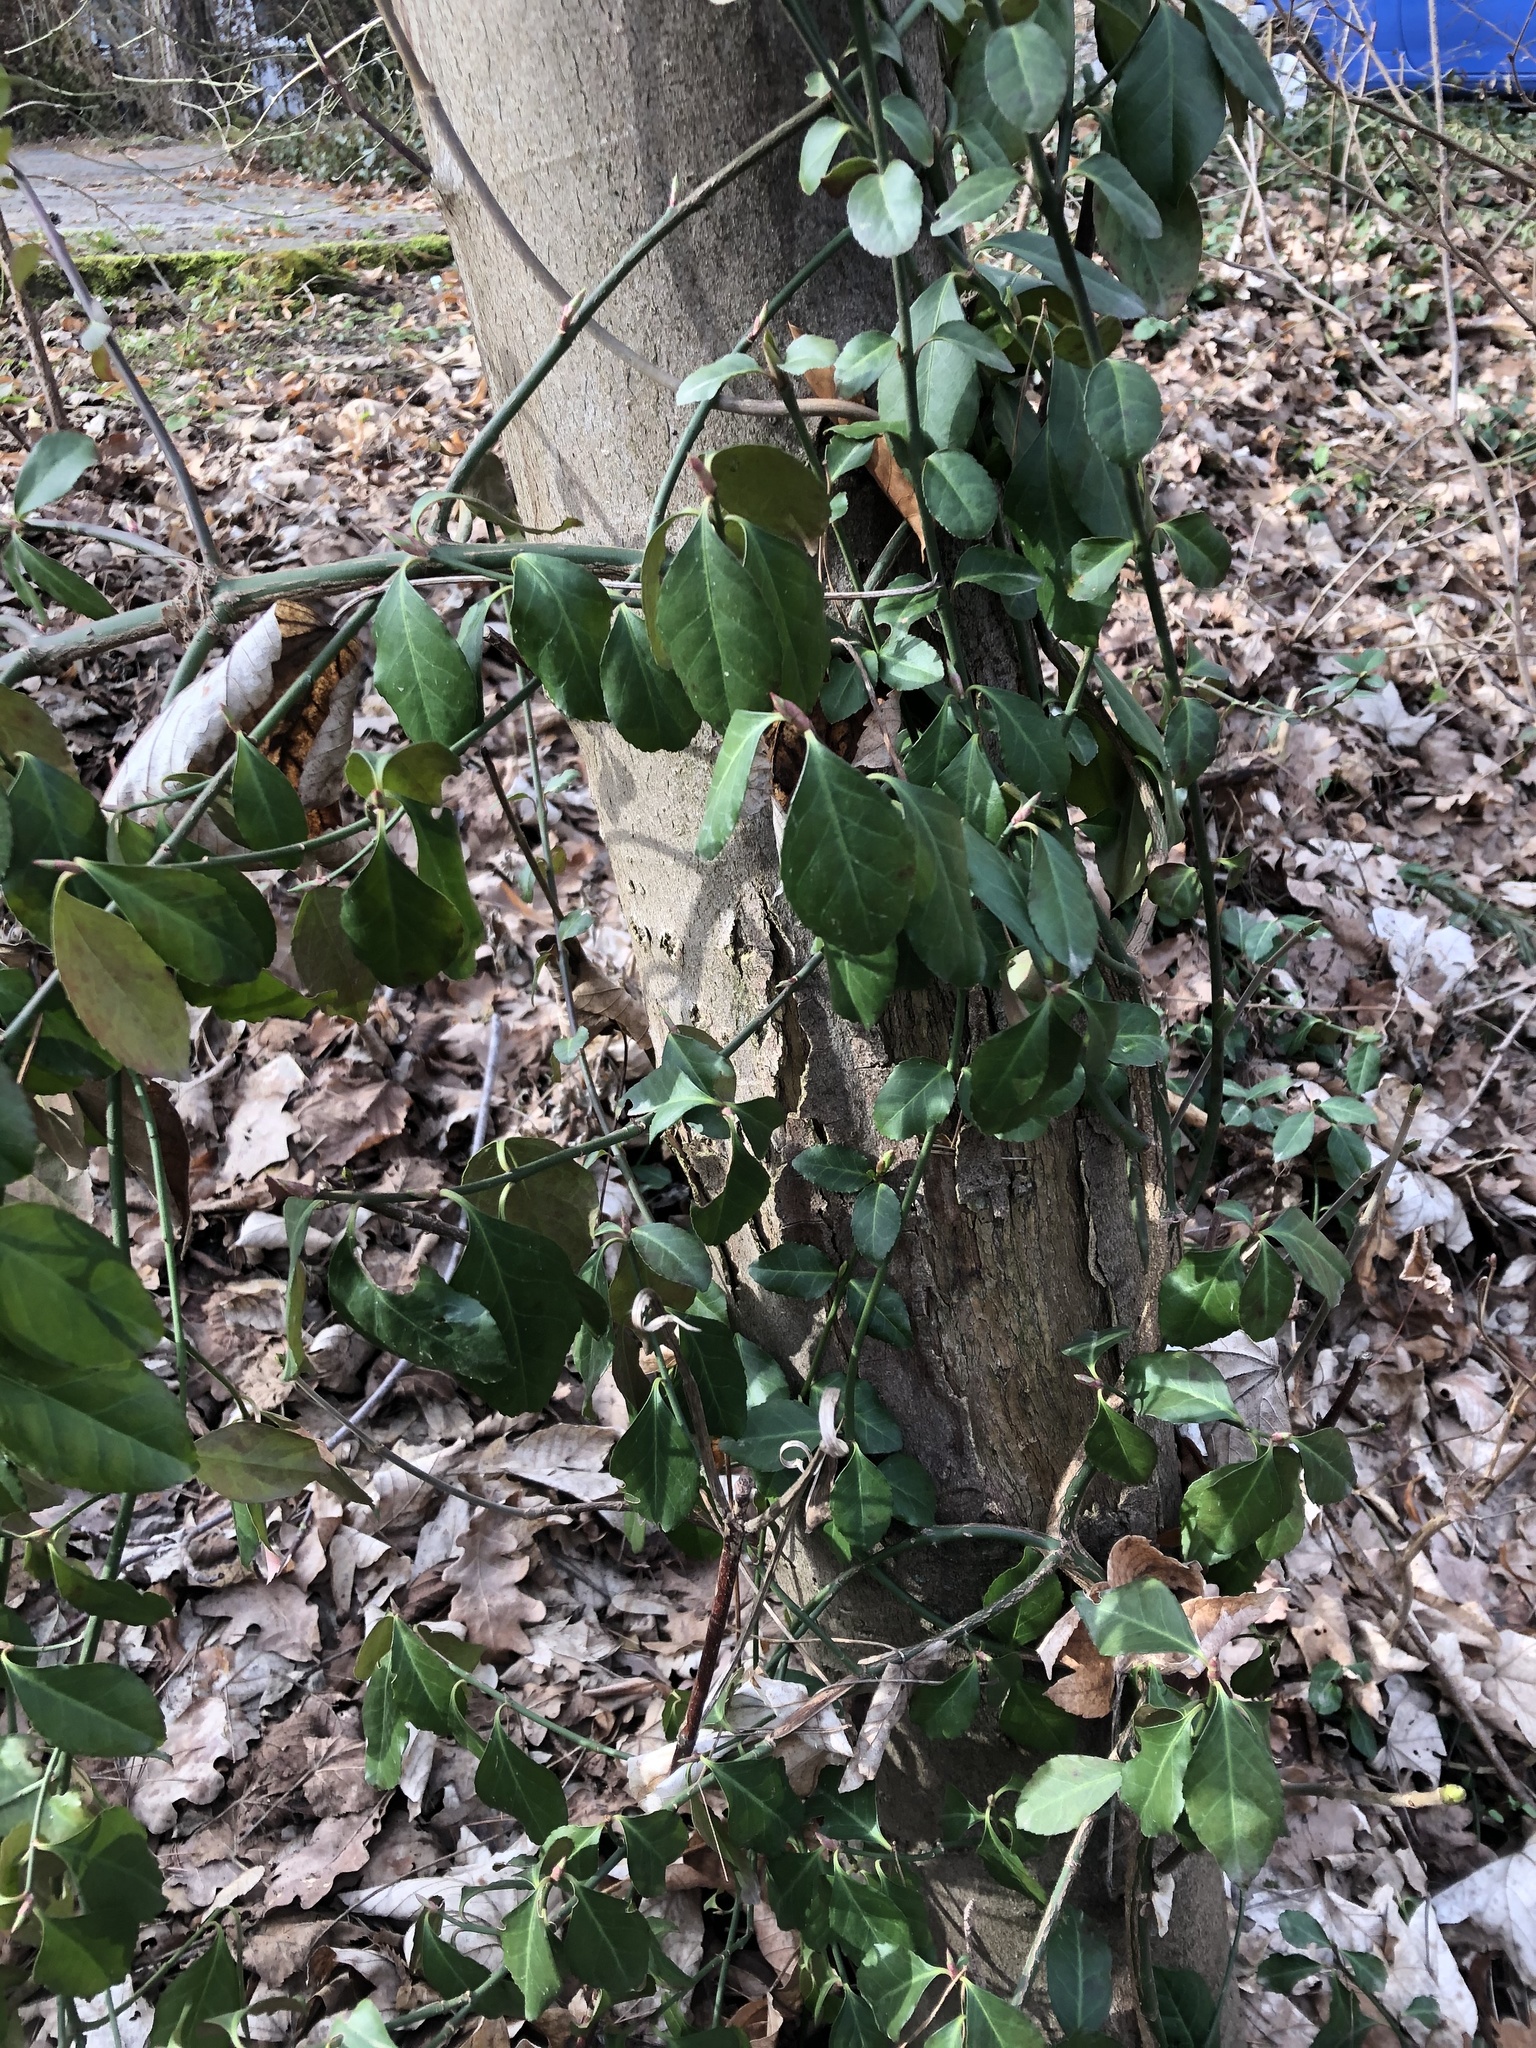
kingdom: Plantae
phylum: Tracheophyta
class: Magnoliopsida
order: Celastrales
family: Celastraceae
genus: Euonymus
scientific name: Euonymus fortunei
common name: Climbing euonymus
